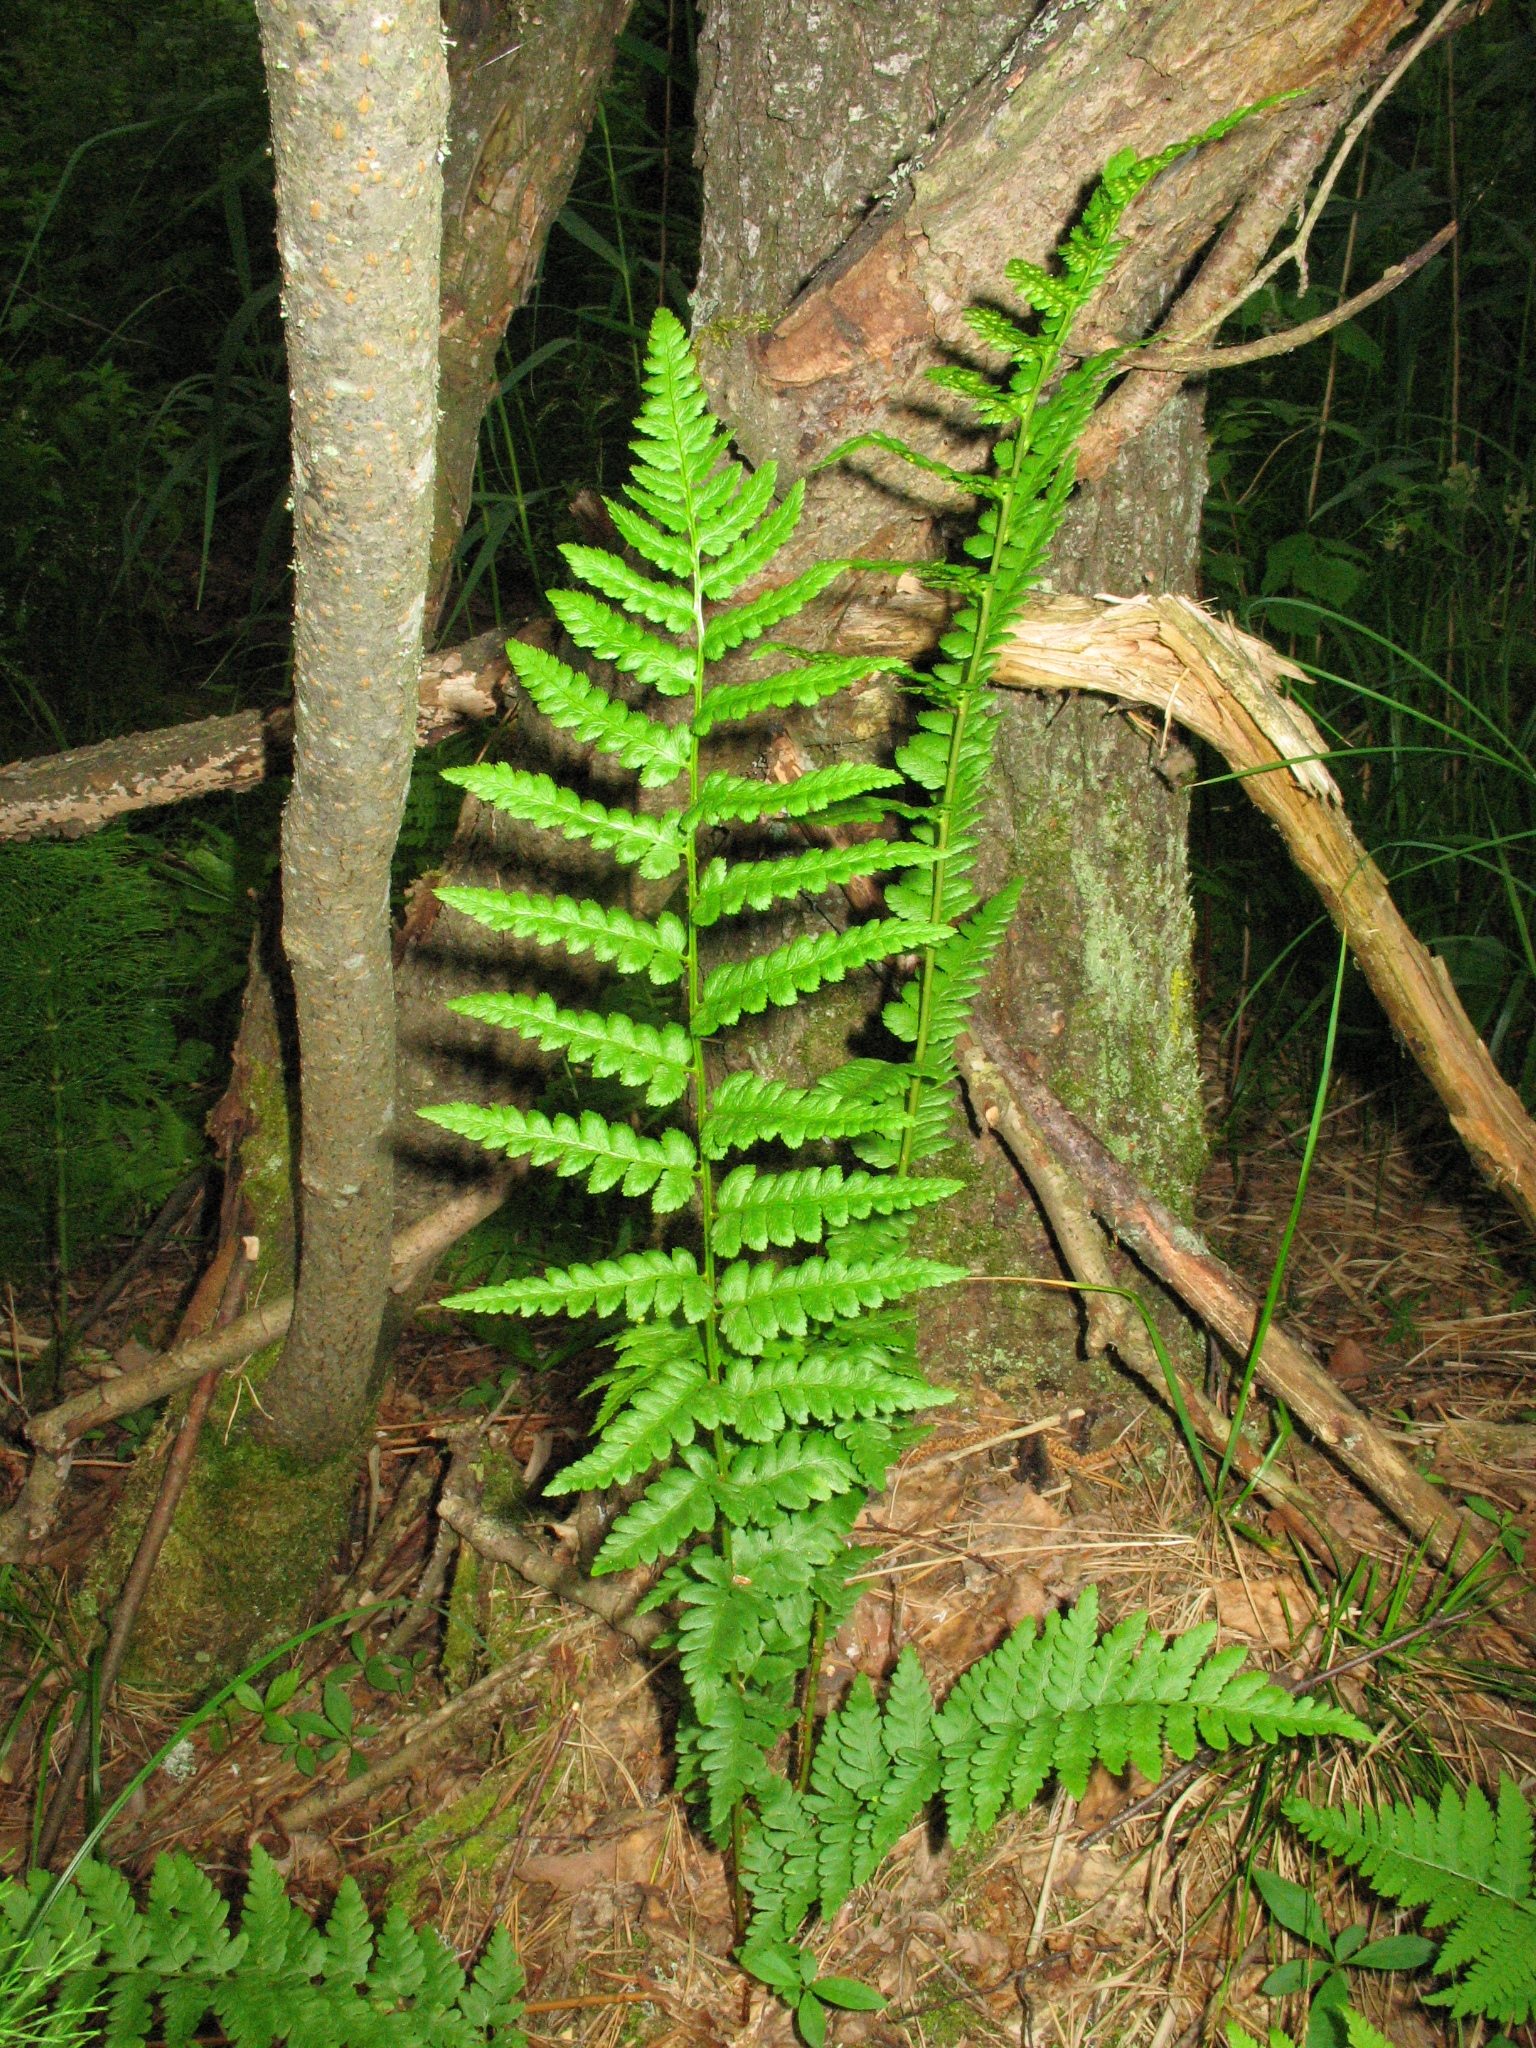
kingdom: Plantae
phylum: Tracheophyta
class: Polypodiopsida
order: Polypodiales
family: Dryopteridaceae
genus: Dryopteris
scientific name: Dryopteris cristata
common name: Crested wood fern
